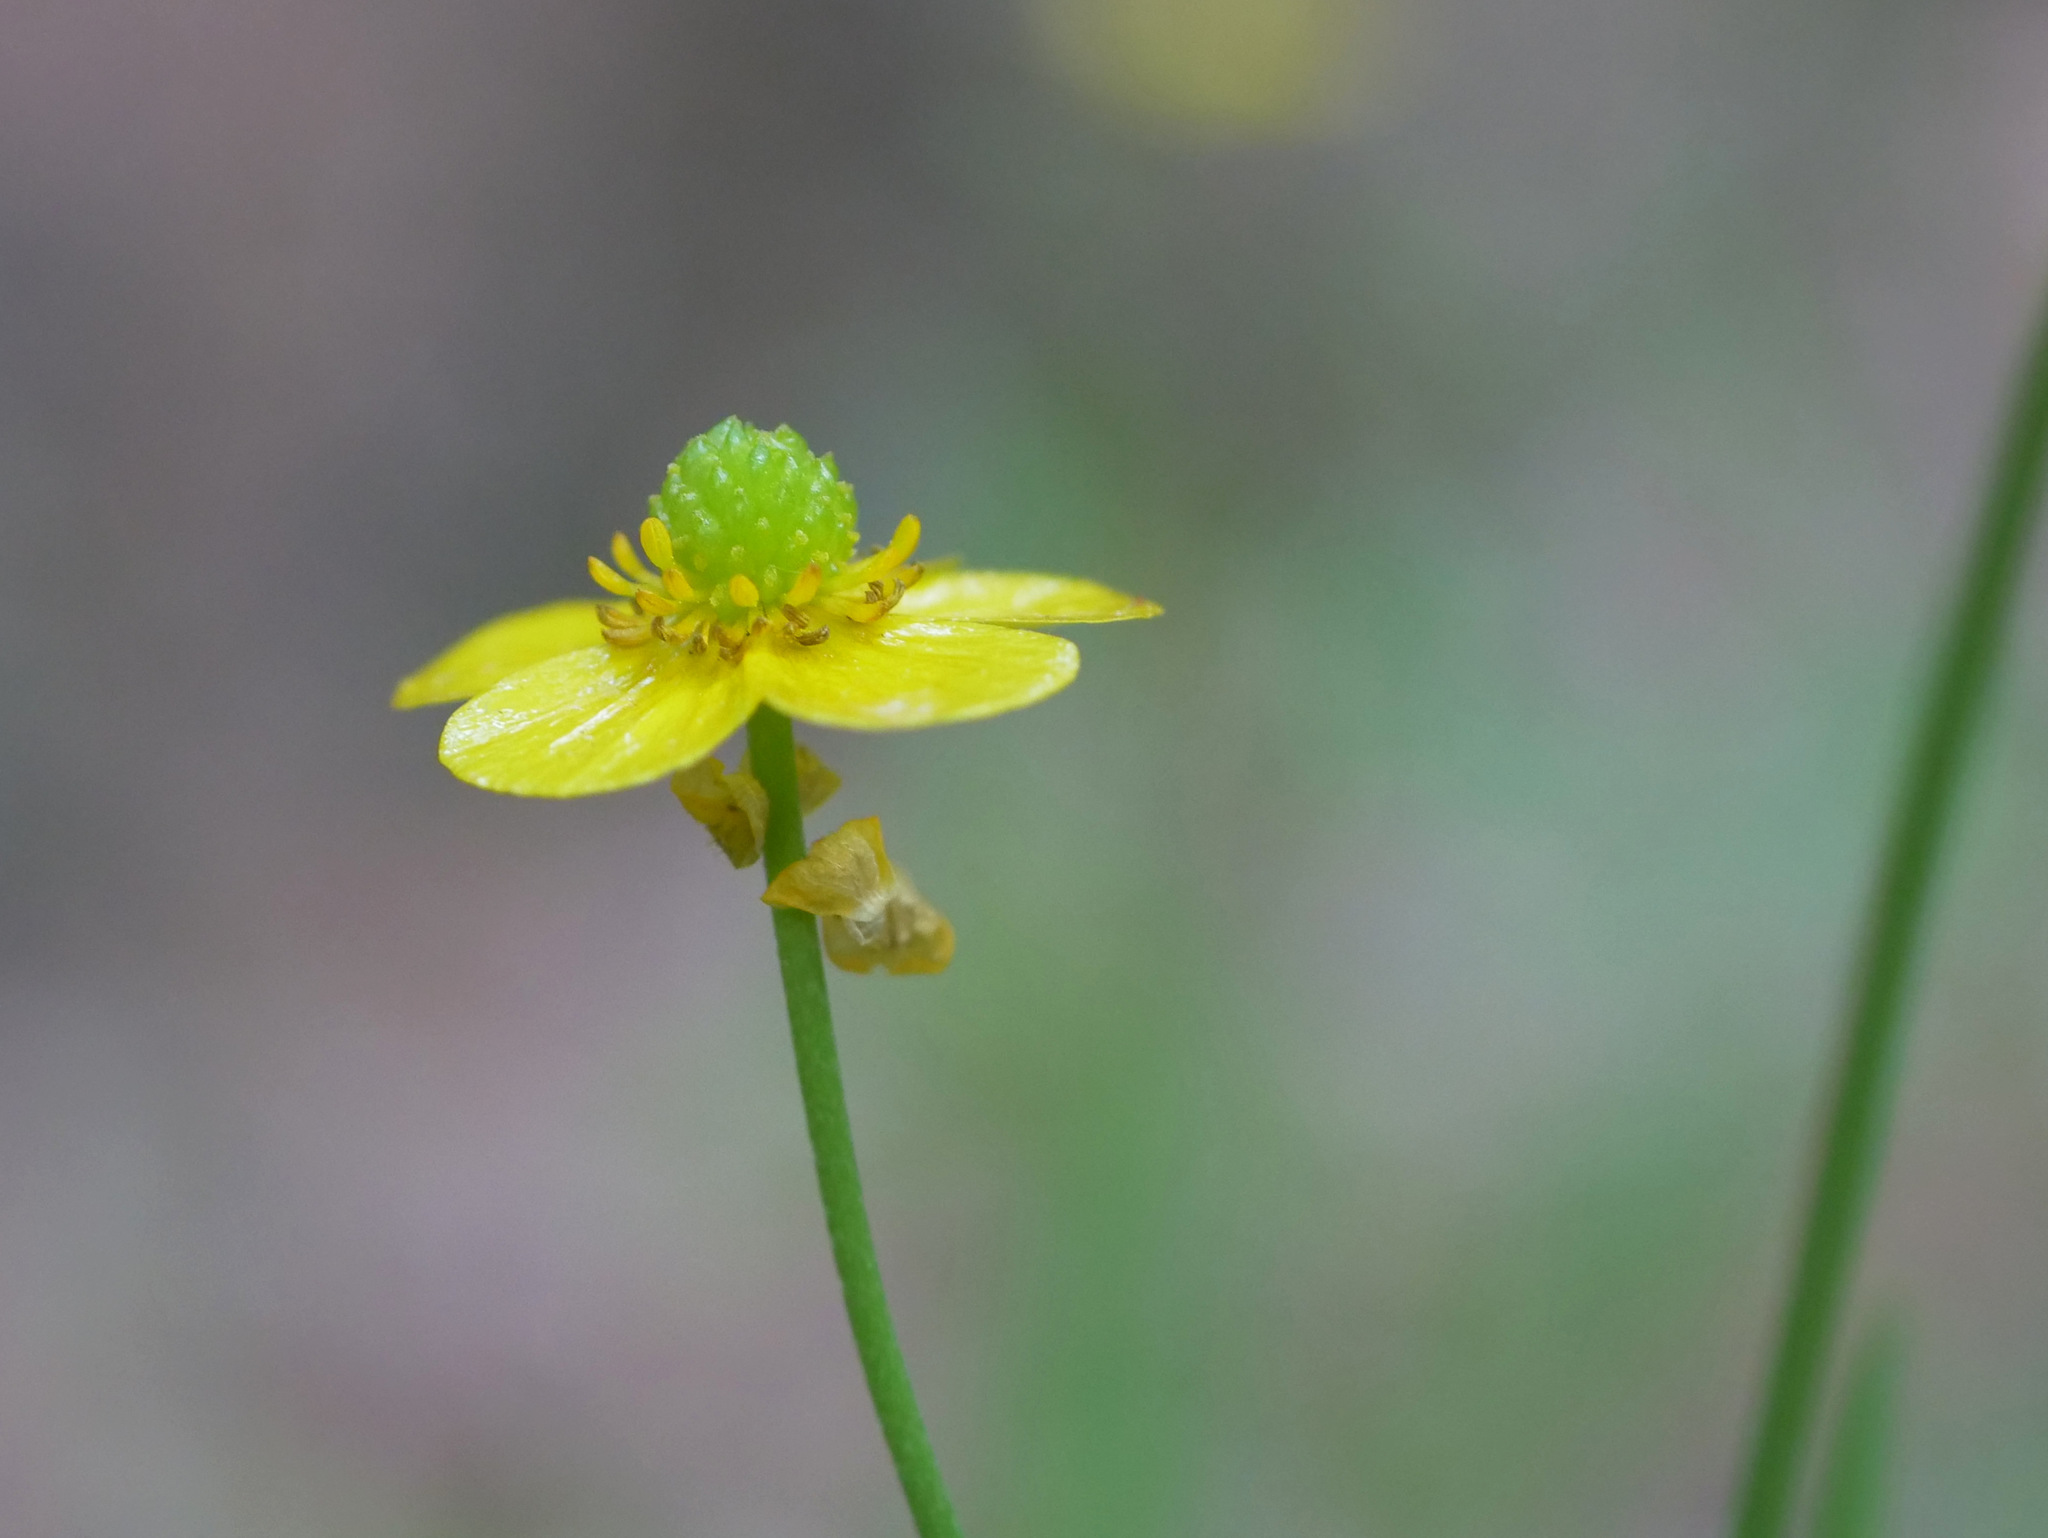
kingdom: Plantae
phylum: Tracheophyta
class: Magnoliopsida
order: Ranunculales
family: Ranunculaceae
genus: Ranunculus
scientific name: Ranunculus flammula
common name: Lesser spearwort
